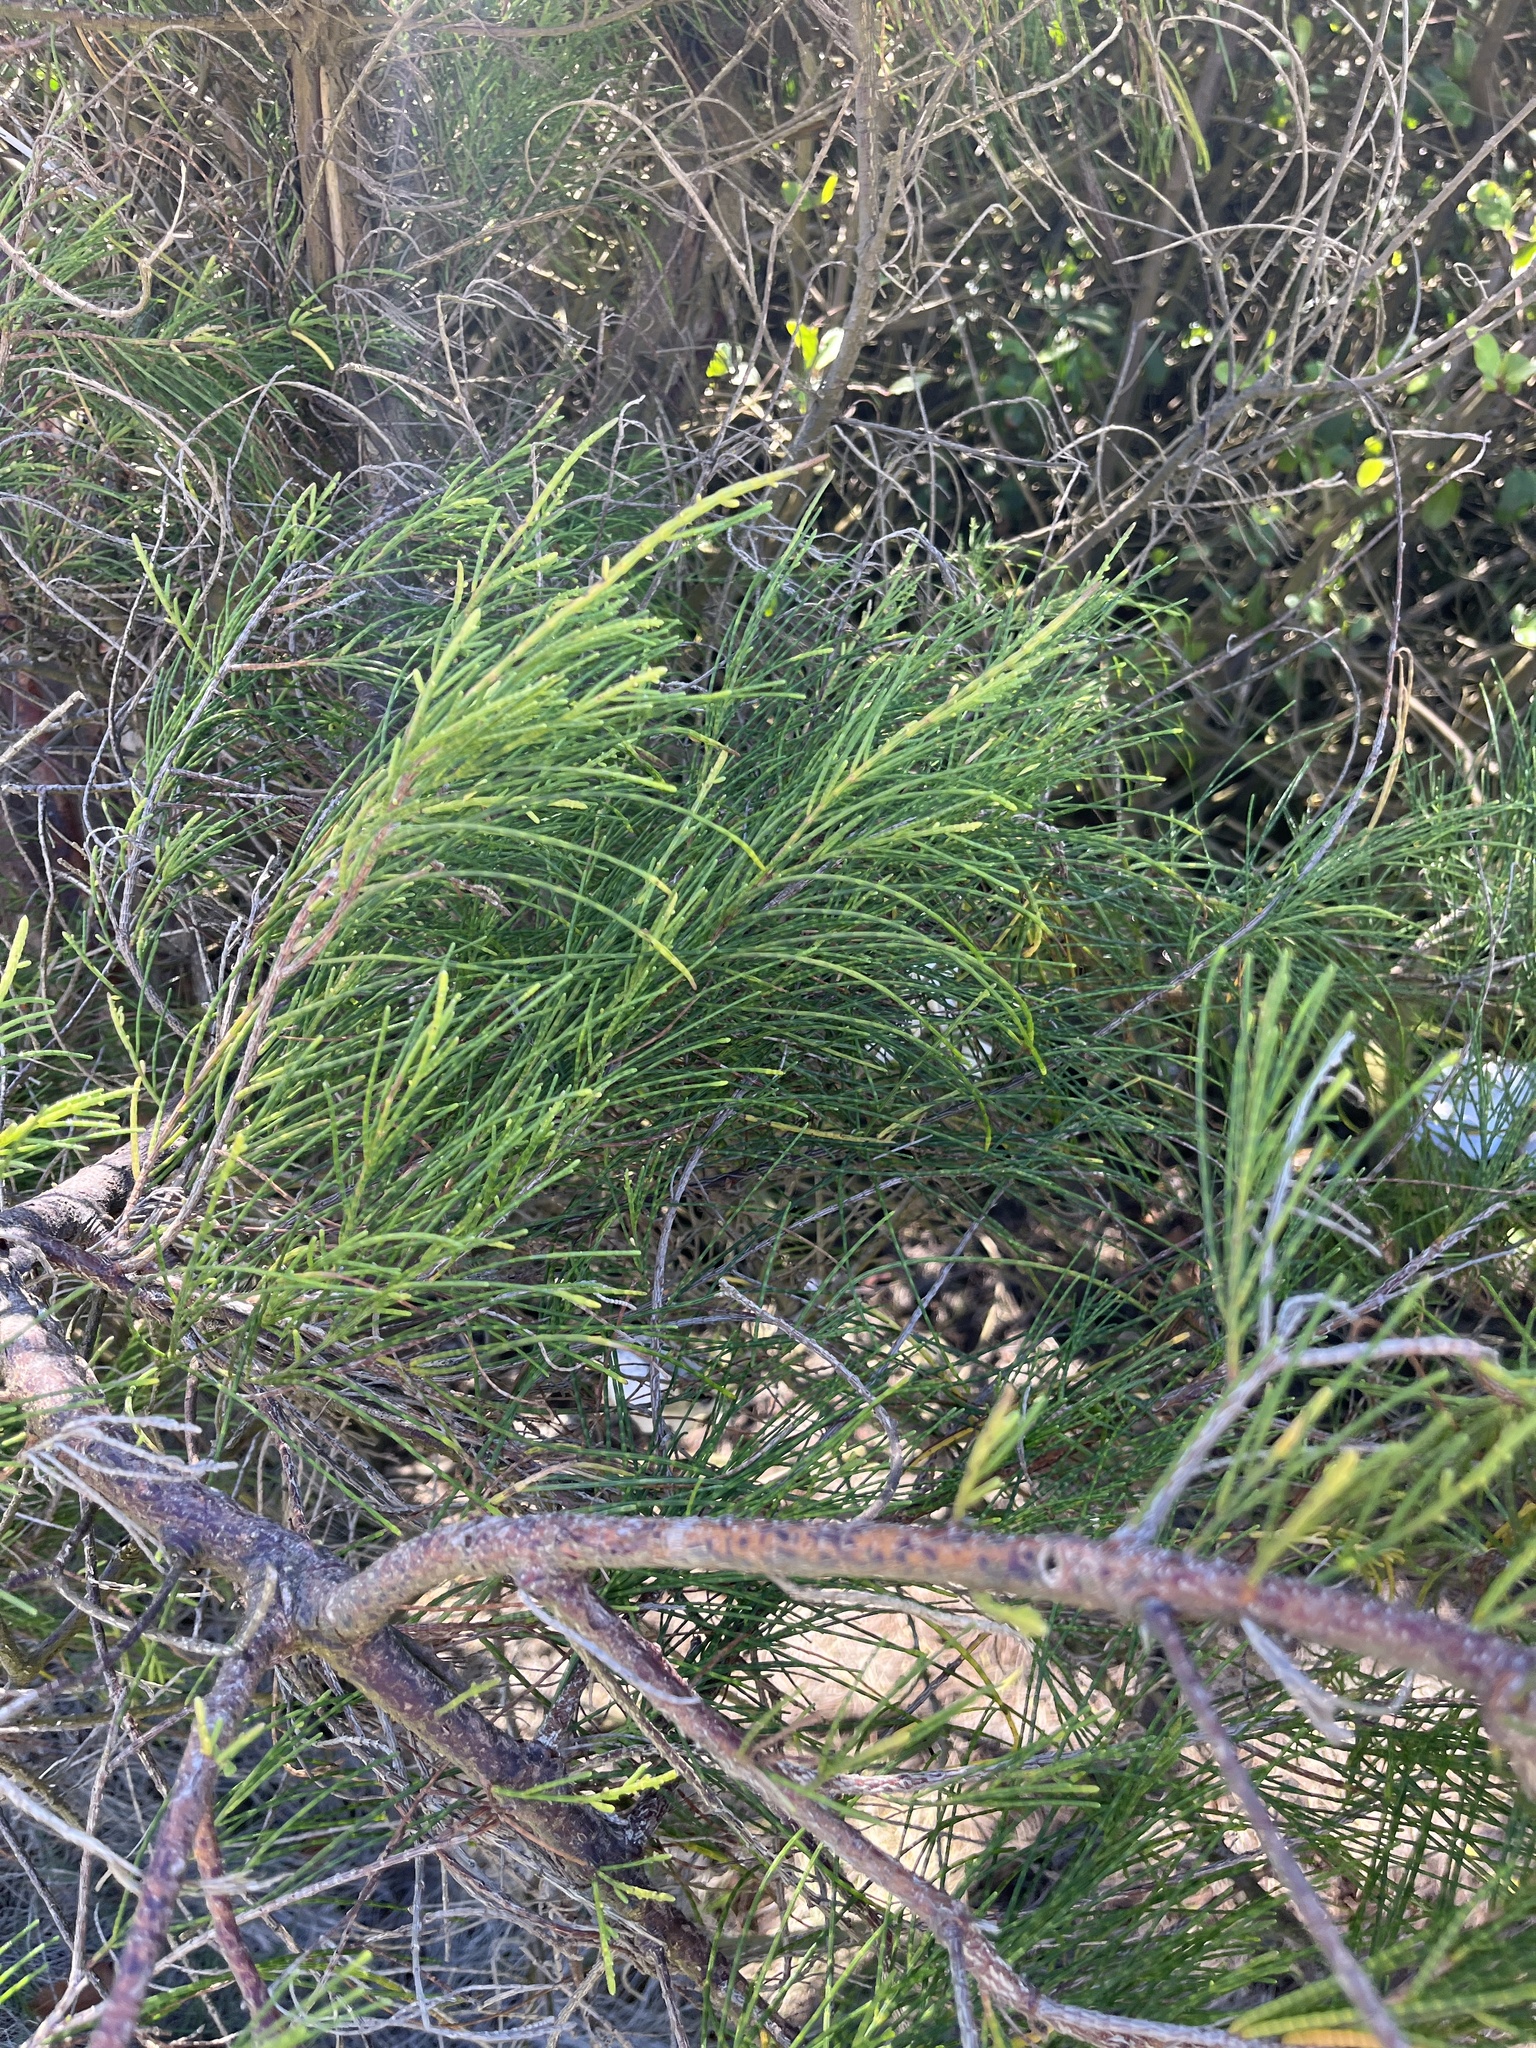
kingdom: Plantae
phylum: Tracheophyta
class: Magnoliopsida
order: Fagales
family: Casuarinaceae
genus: Casuarina
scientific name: Casuarina equisetifolia
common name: Beach sheoak
